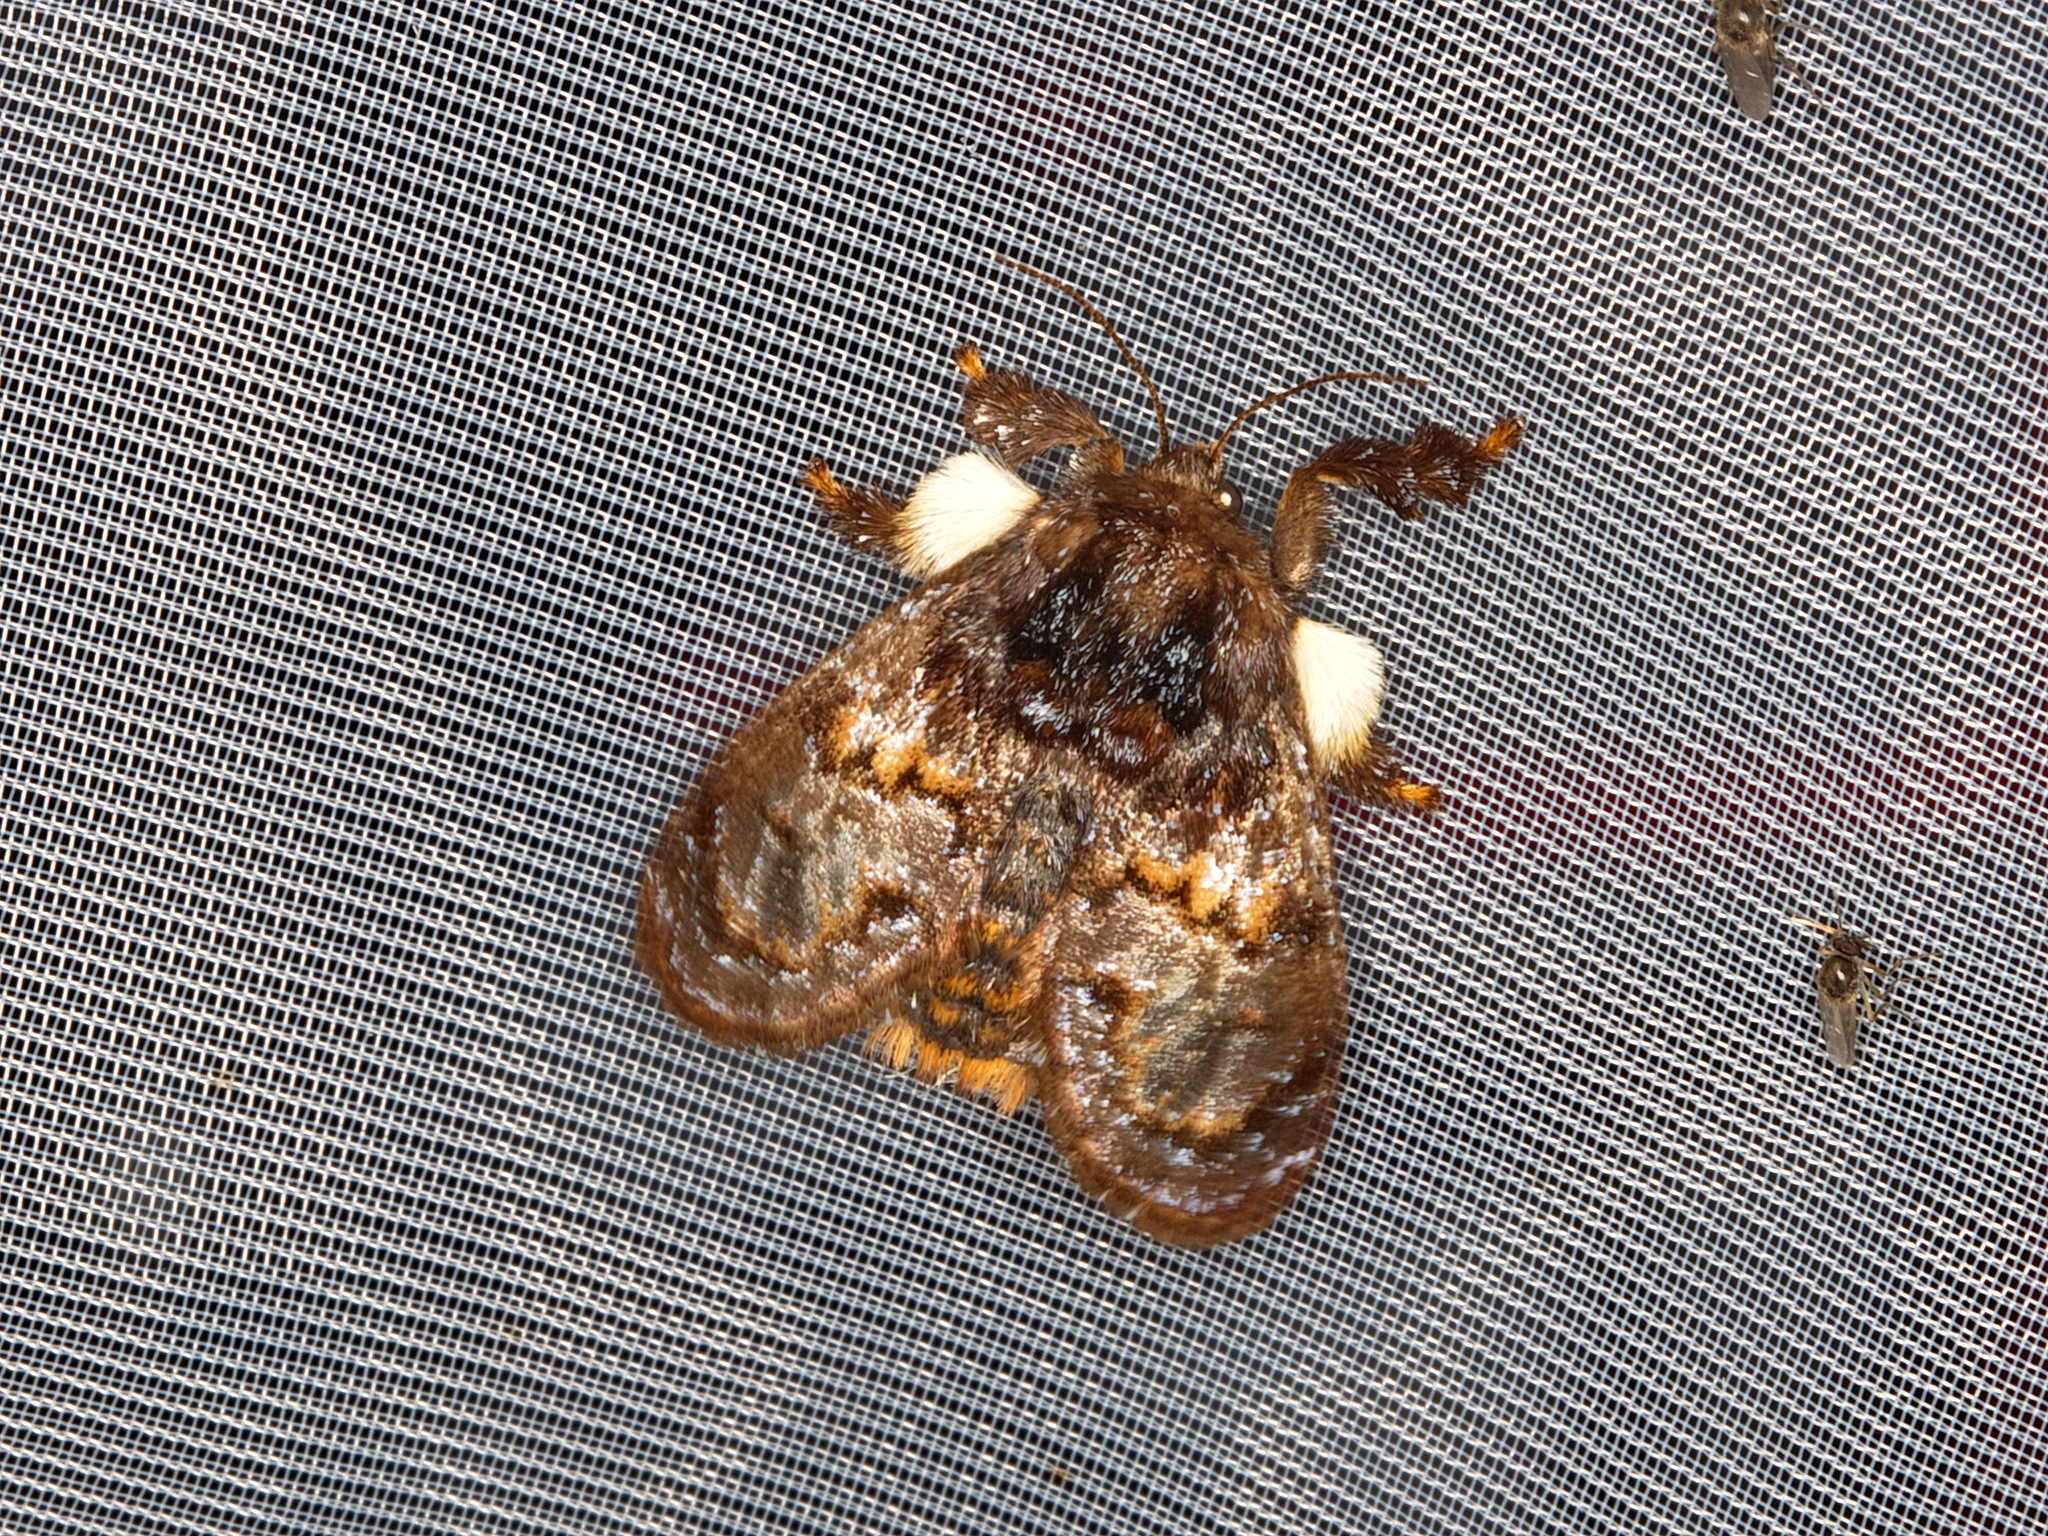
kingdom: Animalia
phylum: Arthropoda
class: Insecta
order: Lepidoptera
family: Limacodidae
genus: Phobetron
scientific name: Phobetron pithecium
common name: Hag moth
